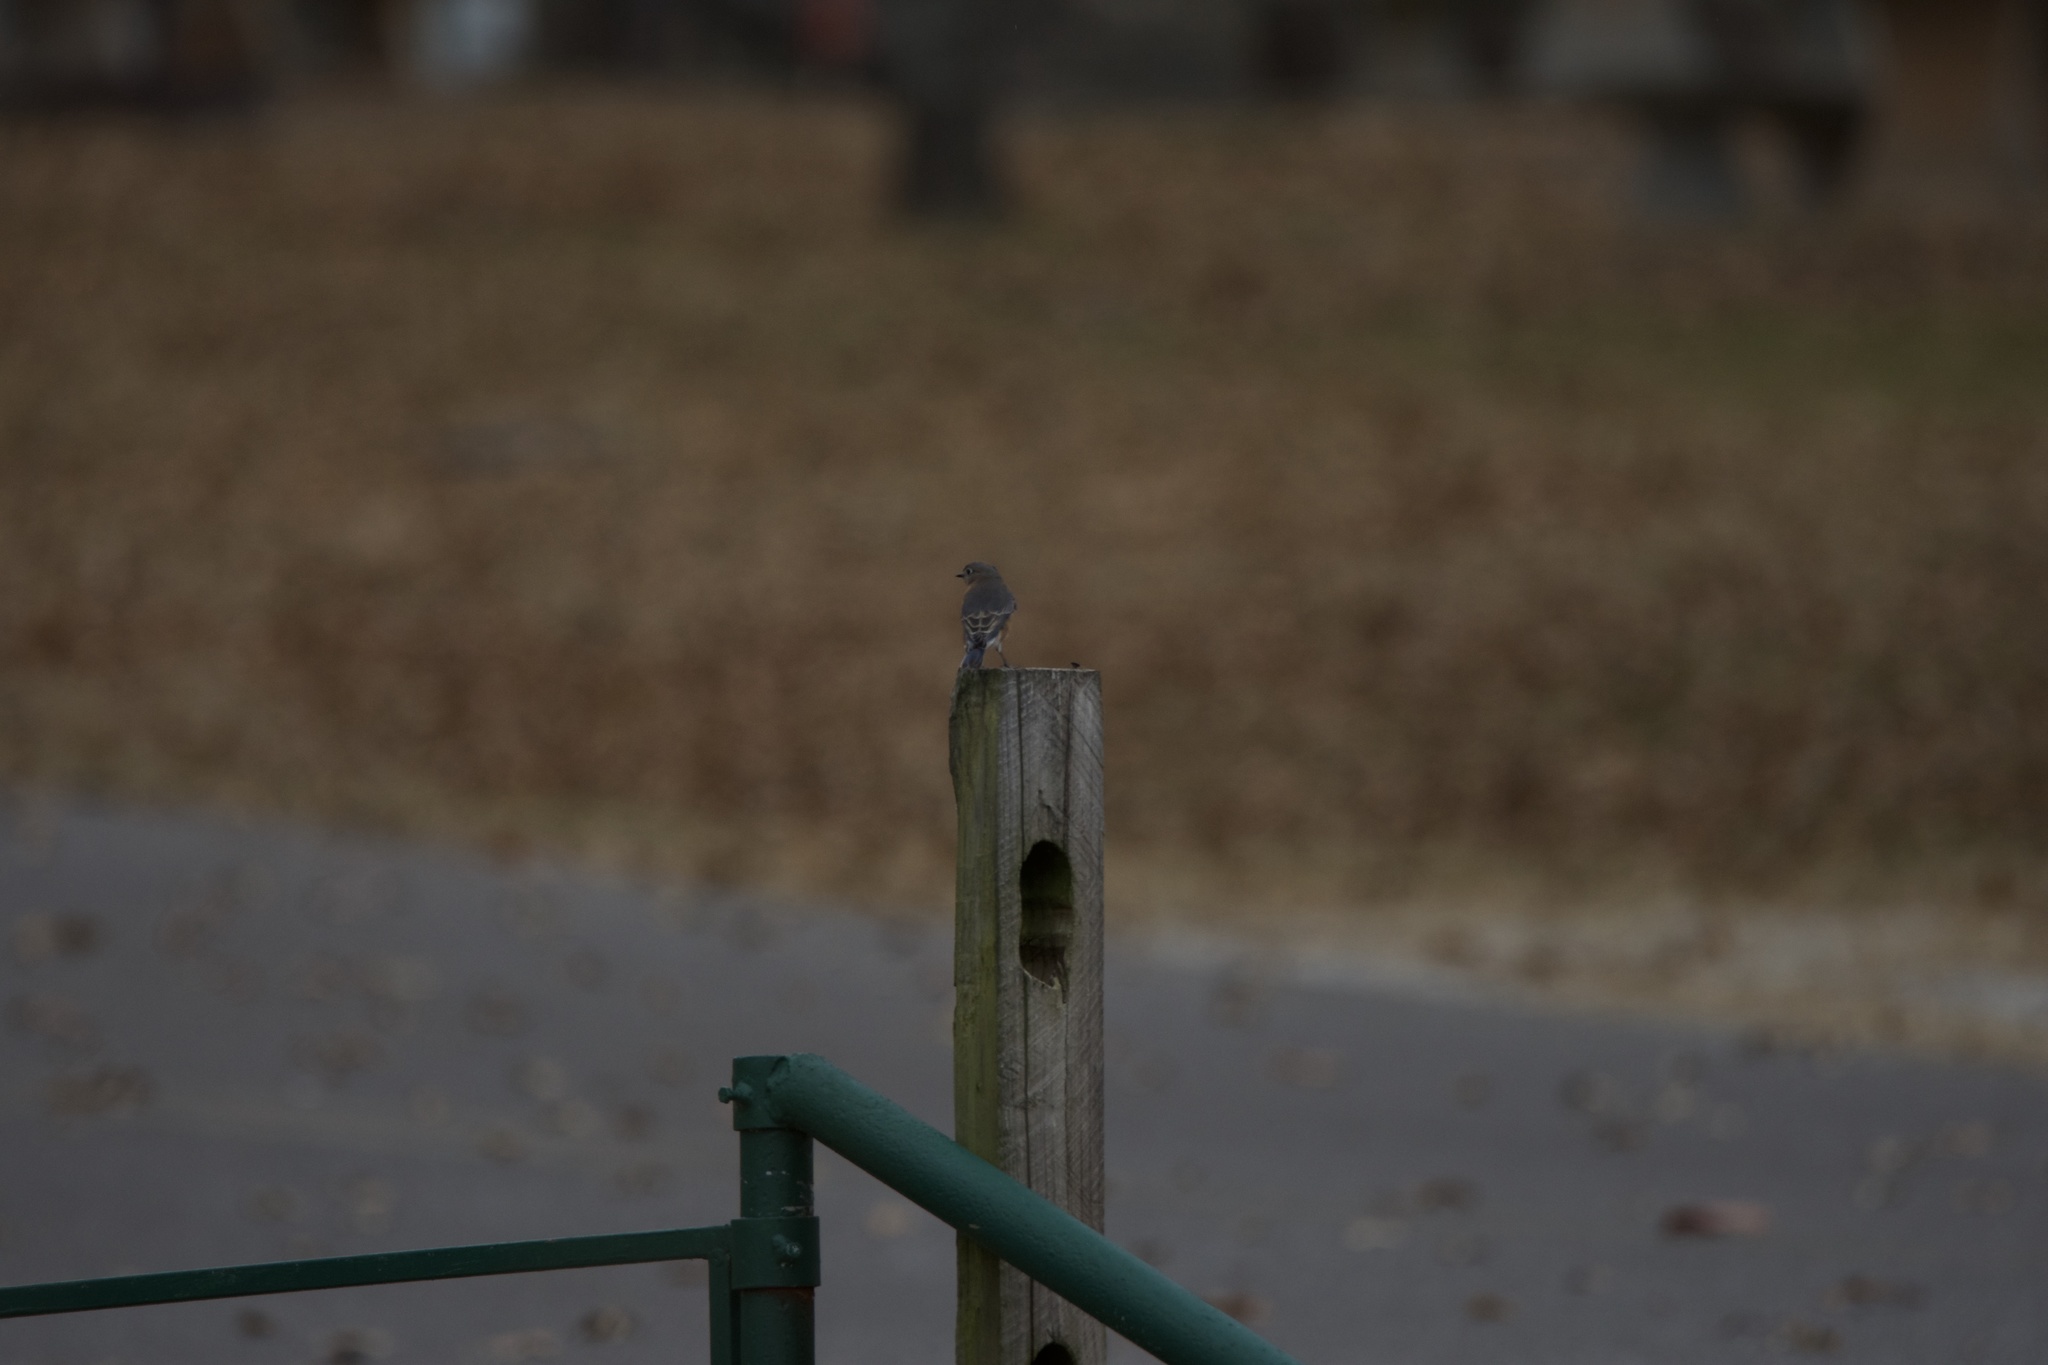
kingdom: Animalia
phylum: Chordata
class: Aves
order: Passeriformes
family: Turdidae
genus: Sialia
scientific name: Sialia sialis
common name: Eastern bluebird
